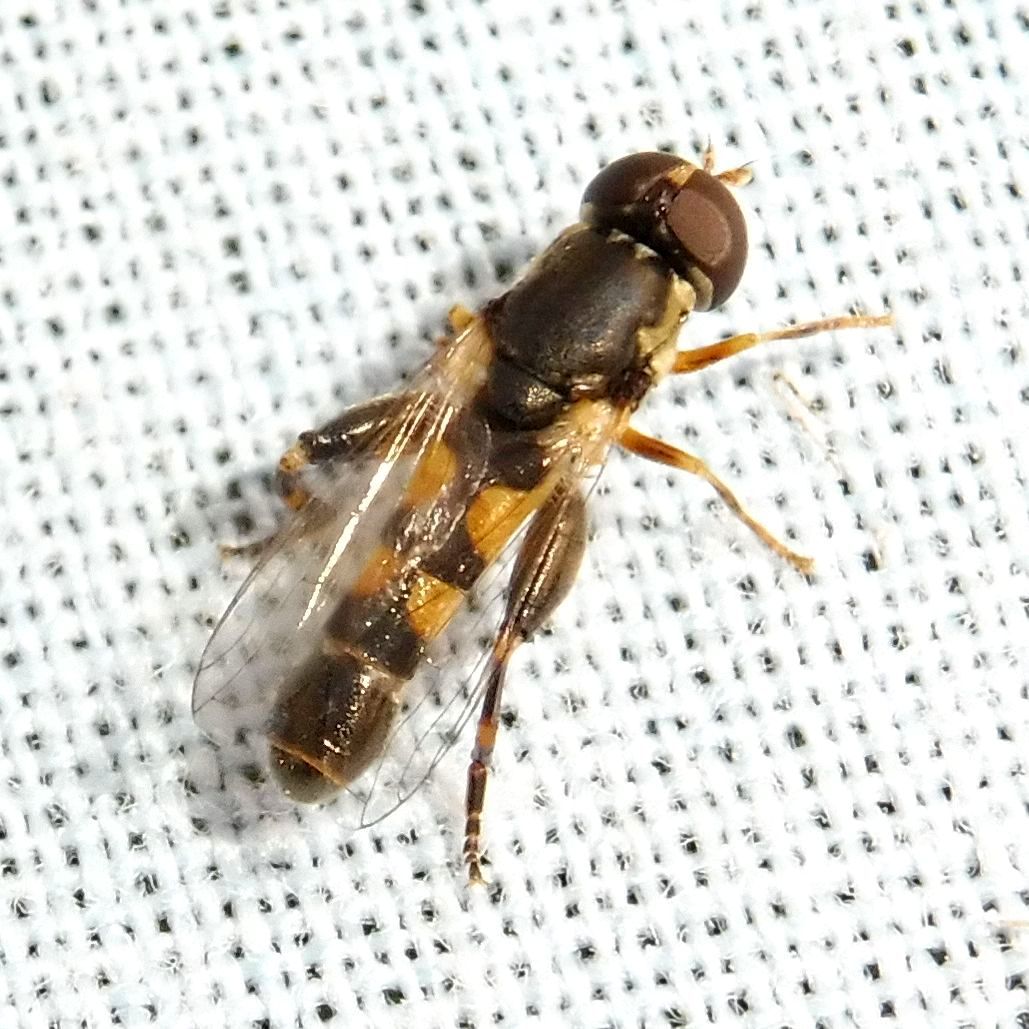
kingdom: Animalia
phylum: Arthropoda
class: Insecta
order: Diptera
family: Syrphidae
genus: Syritta
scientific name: Syritta pipiens
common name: Hover fly
